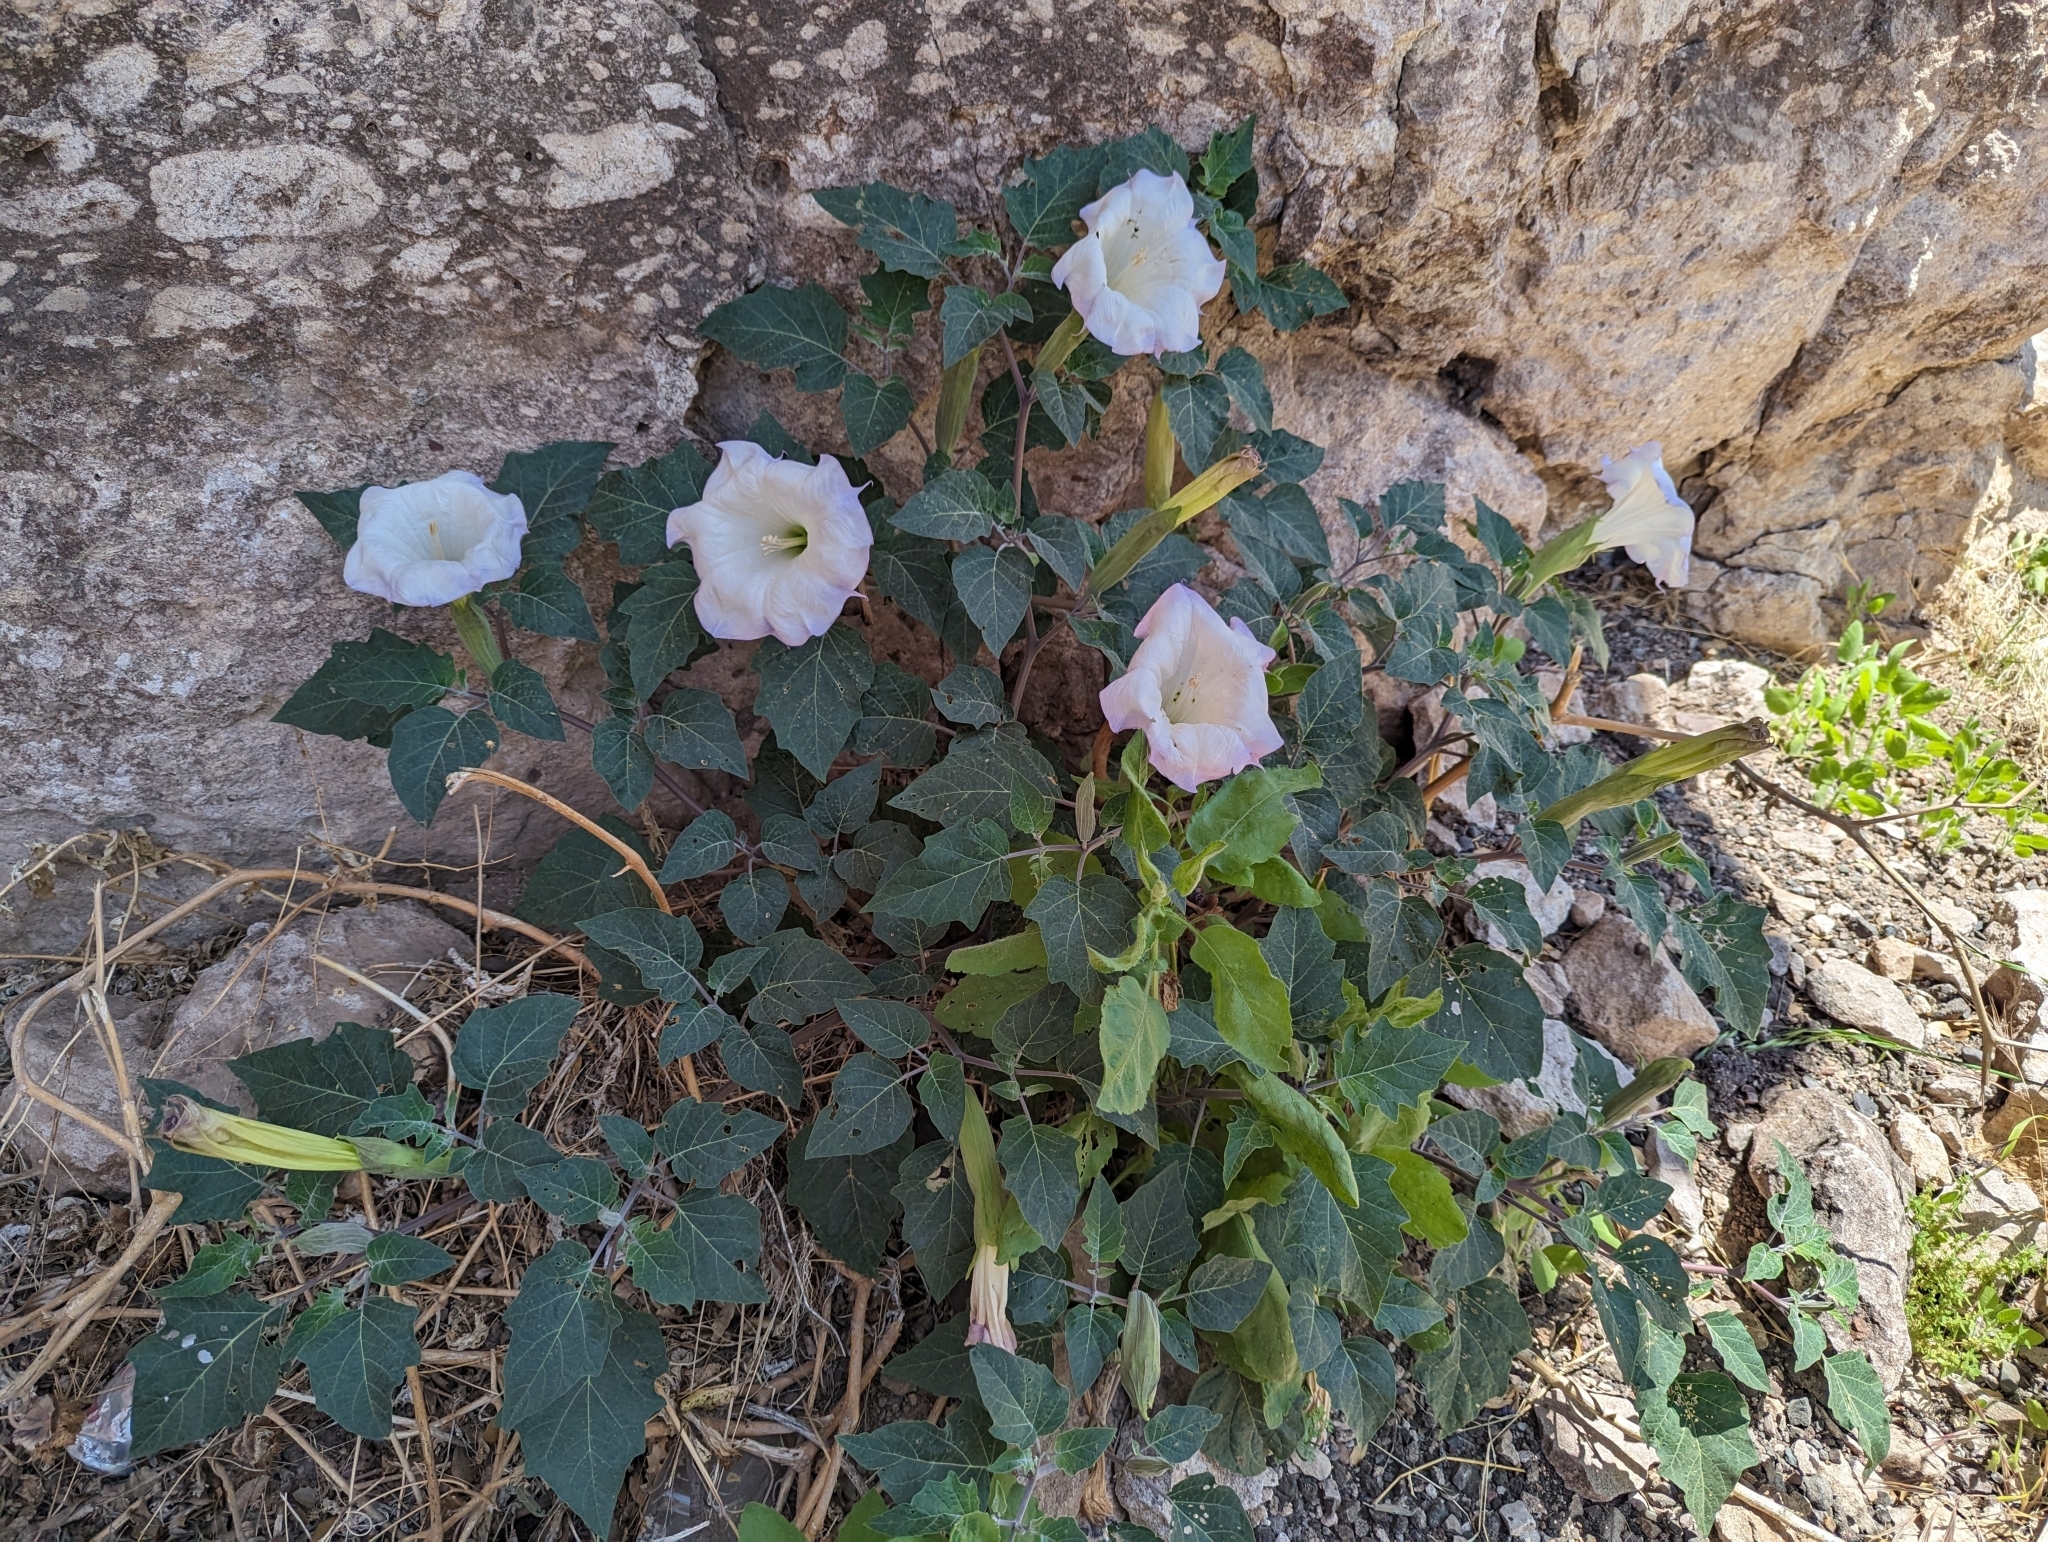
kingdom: Plantae
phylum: Tracheophyta
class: Magnoliopsida
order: Solanales
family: Solanaceae
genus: Datura
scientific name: Datura wrightii
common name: Sacred thorn-apple
